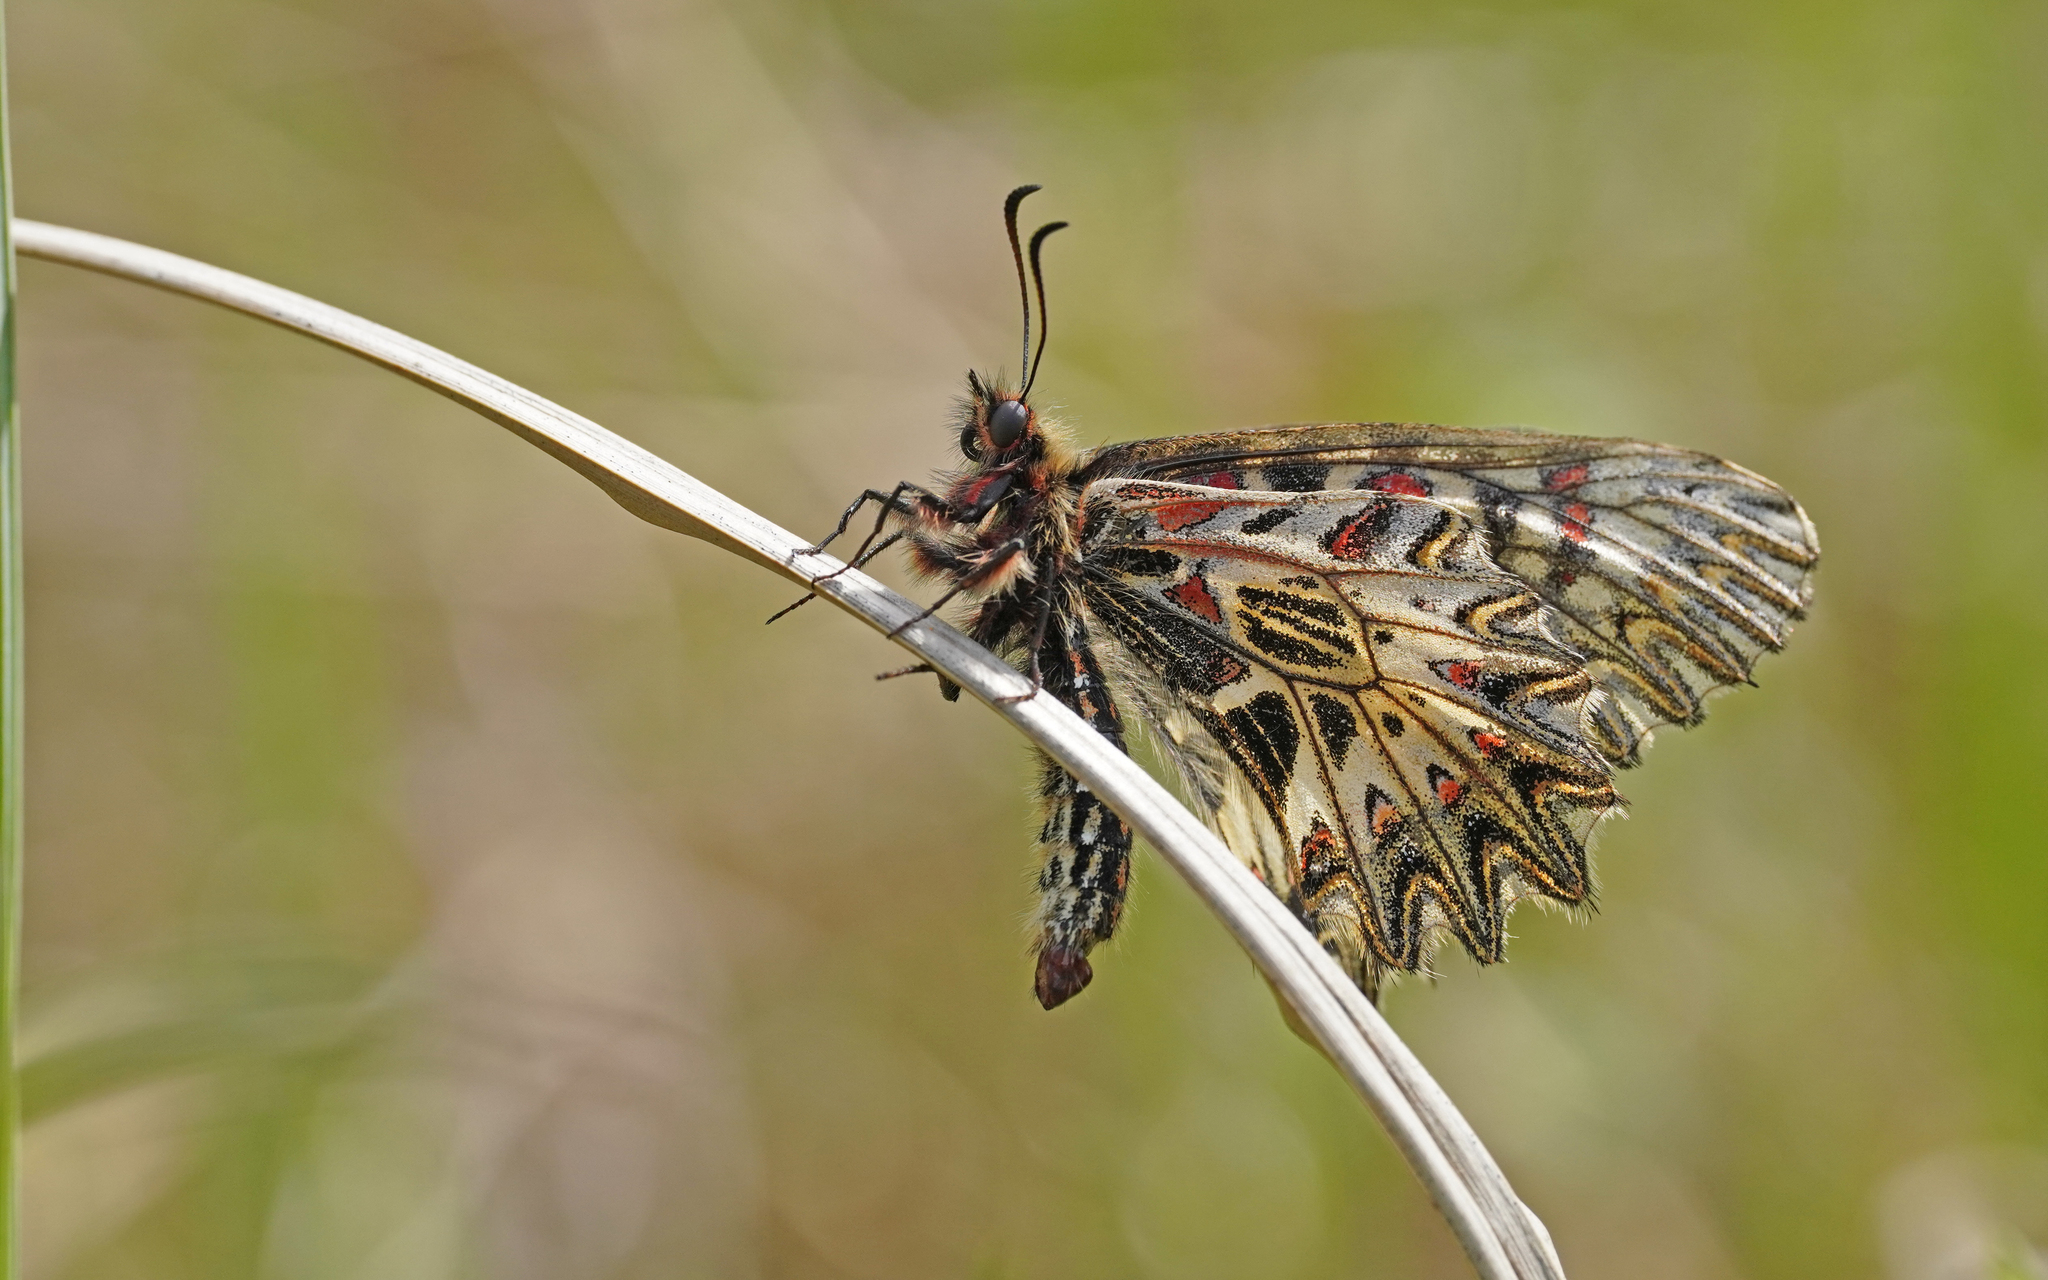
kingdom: Animalia
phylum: Arthropoda
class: Insecta
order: Lepidoptera
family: Papilionidae
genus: Zerynthia
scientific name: Zerynthia polyxena
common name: Southern festoon
